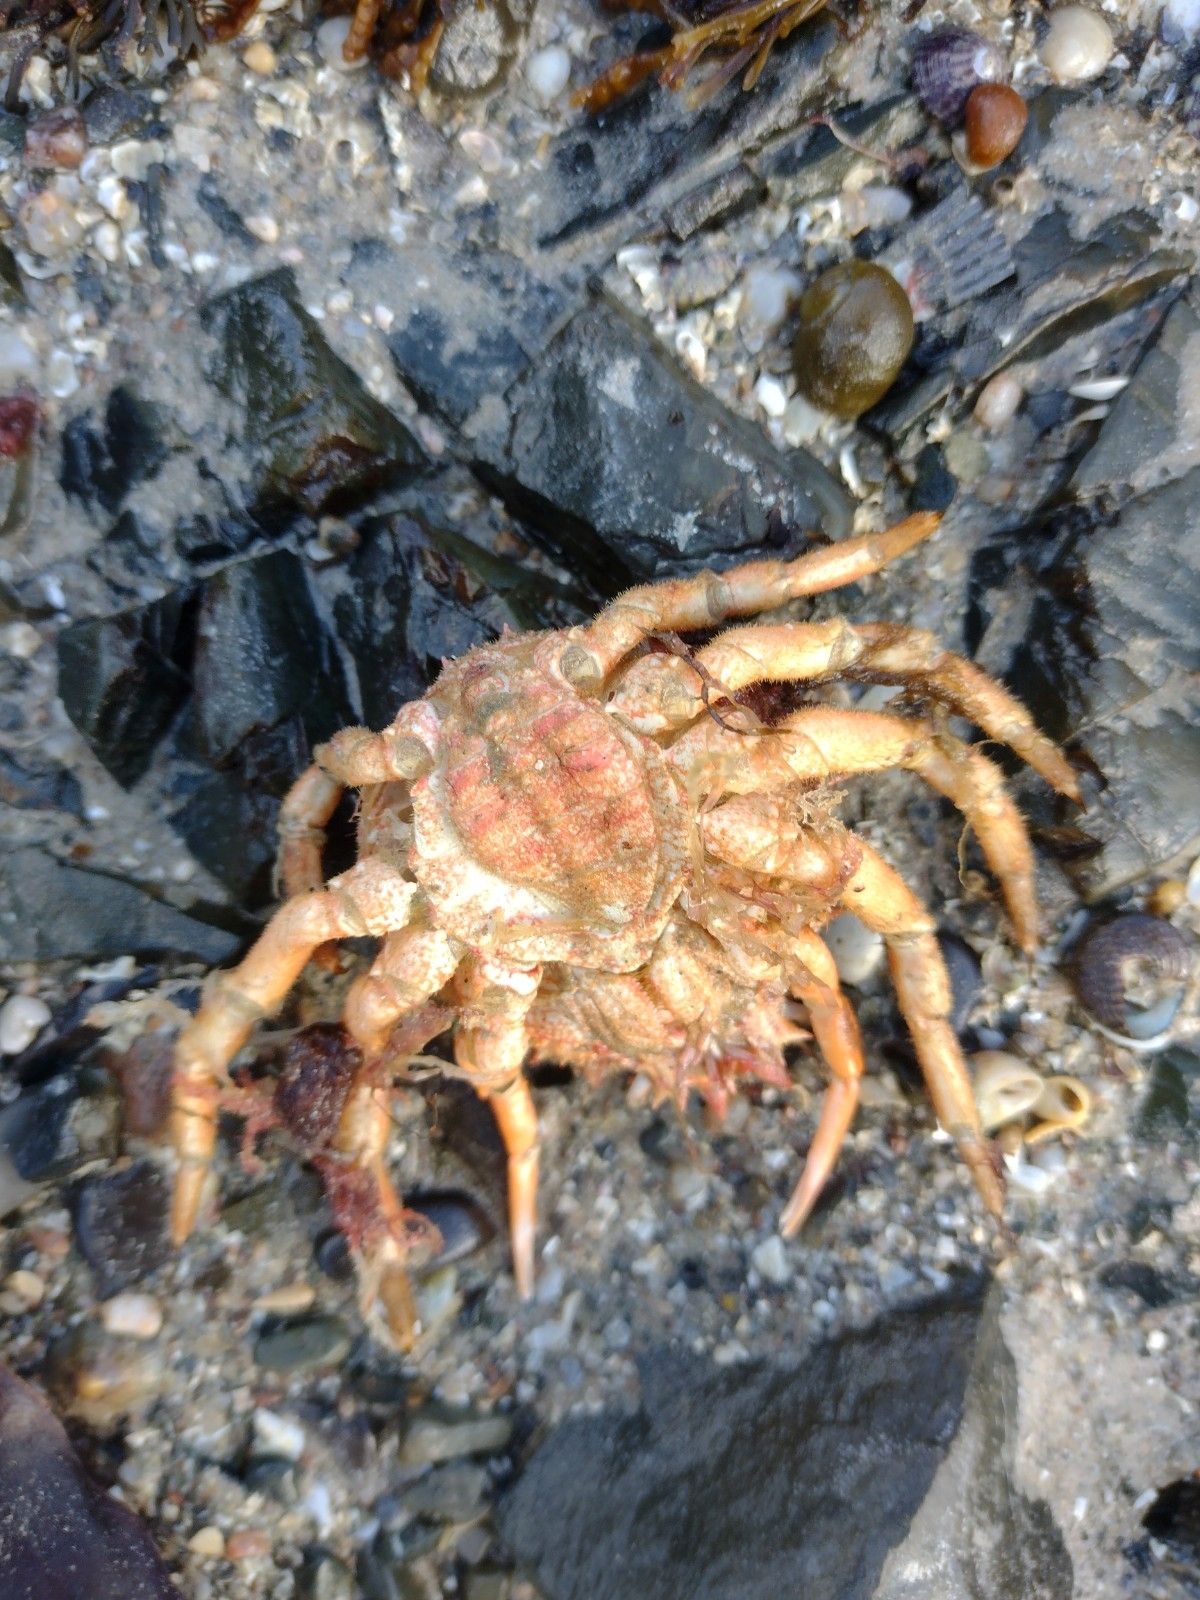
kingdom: Animalia
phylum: Arthropoda
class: Malacostraca
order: Decapoda
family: Majidae
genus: Maja
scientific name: Maja brachydactyla
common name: Common spider crab
